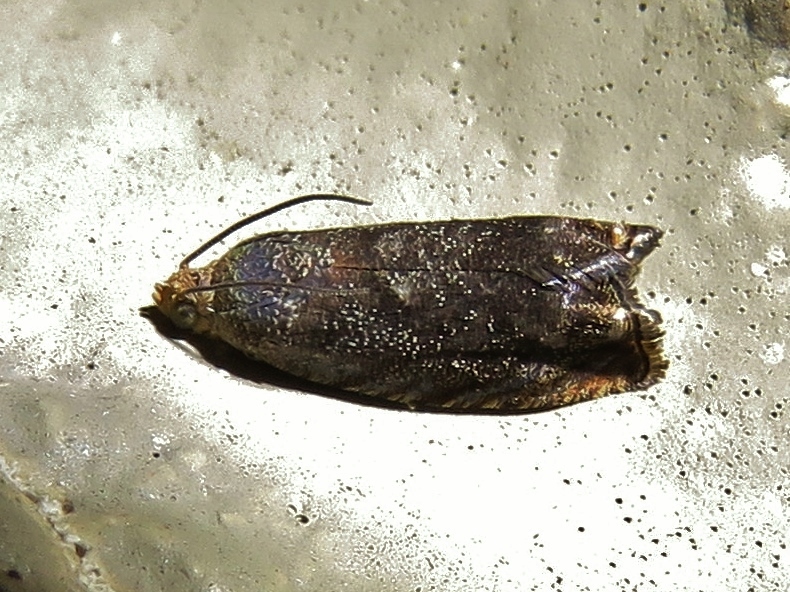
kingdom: Animalia
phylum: Arthropoda
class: Insecta
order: Lepidoptera
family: Tortricidae
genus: Cydia
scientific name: Cydia caryana
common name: Hickory shuckworm moth
